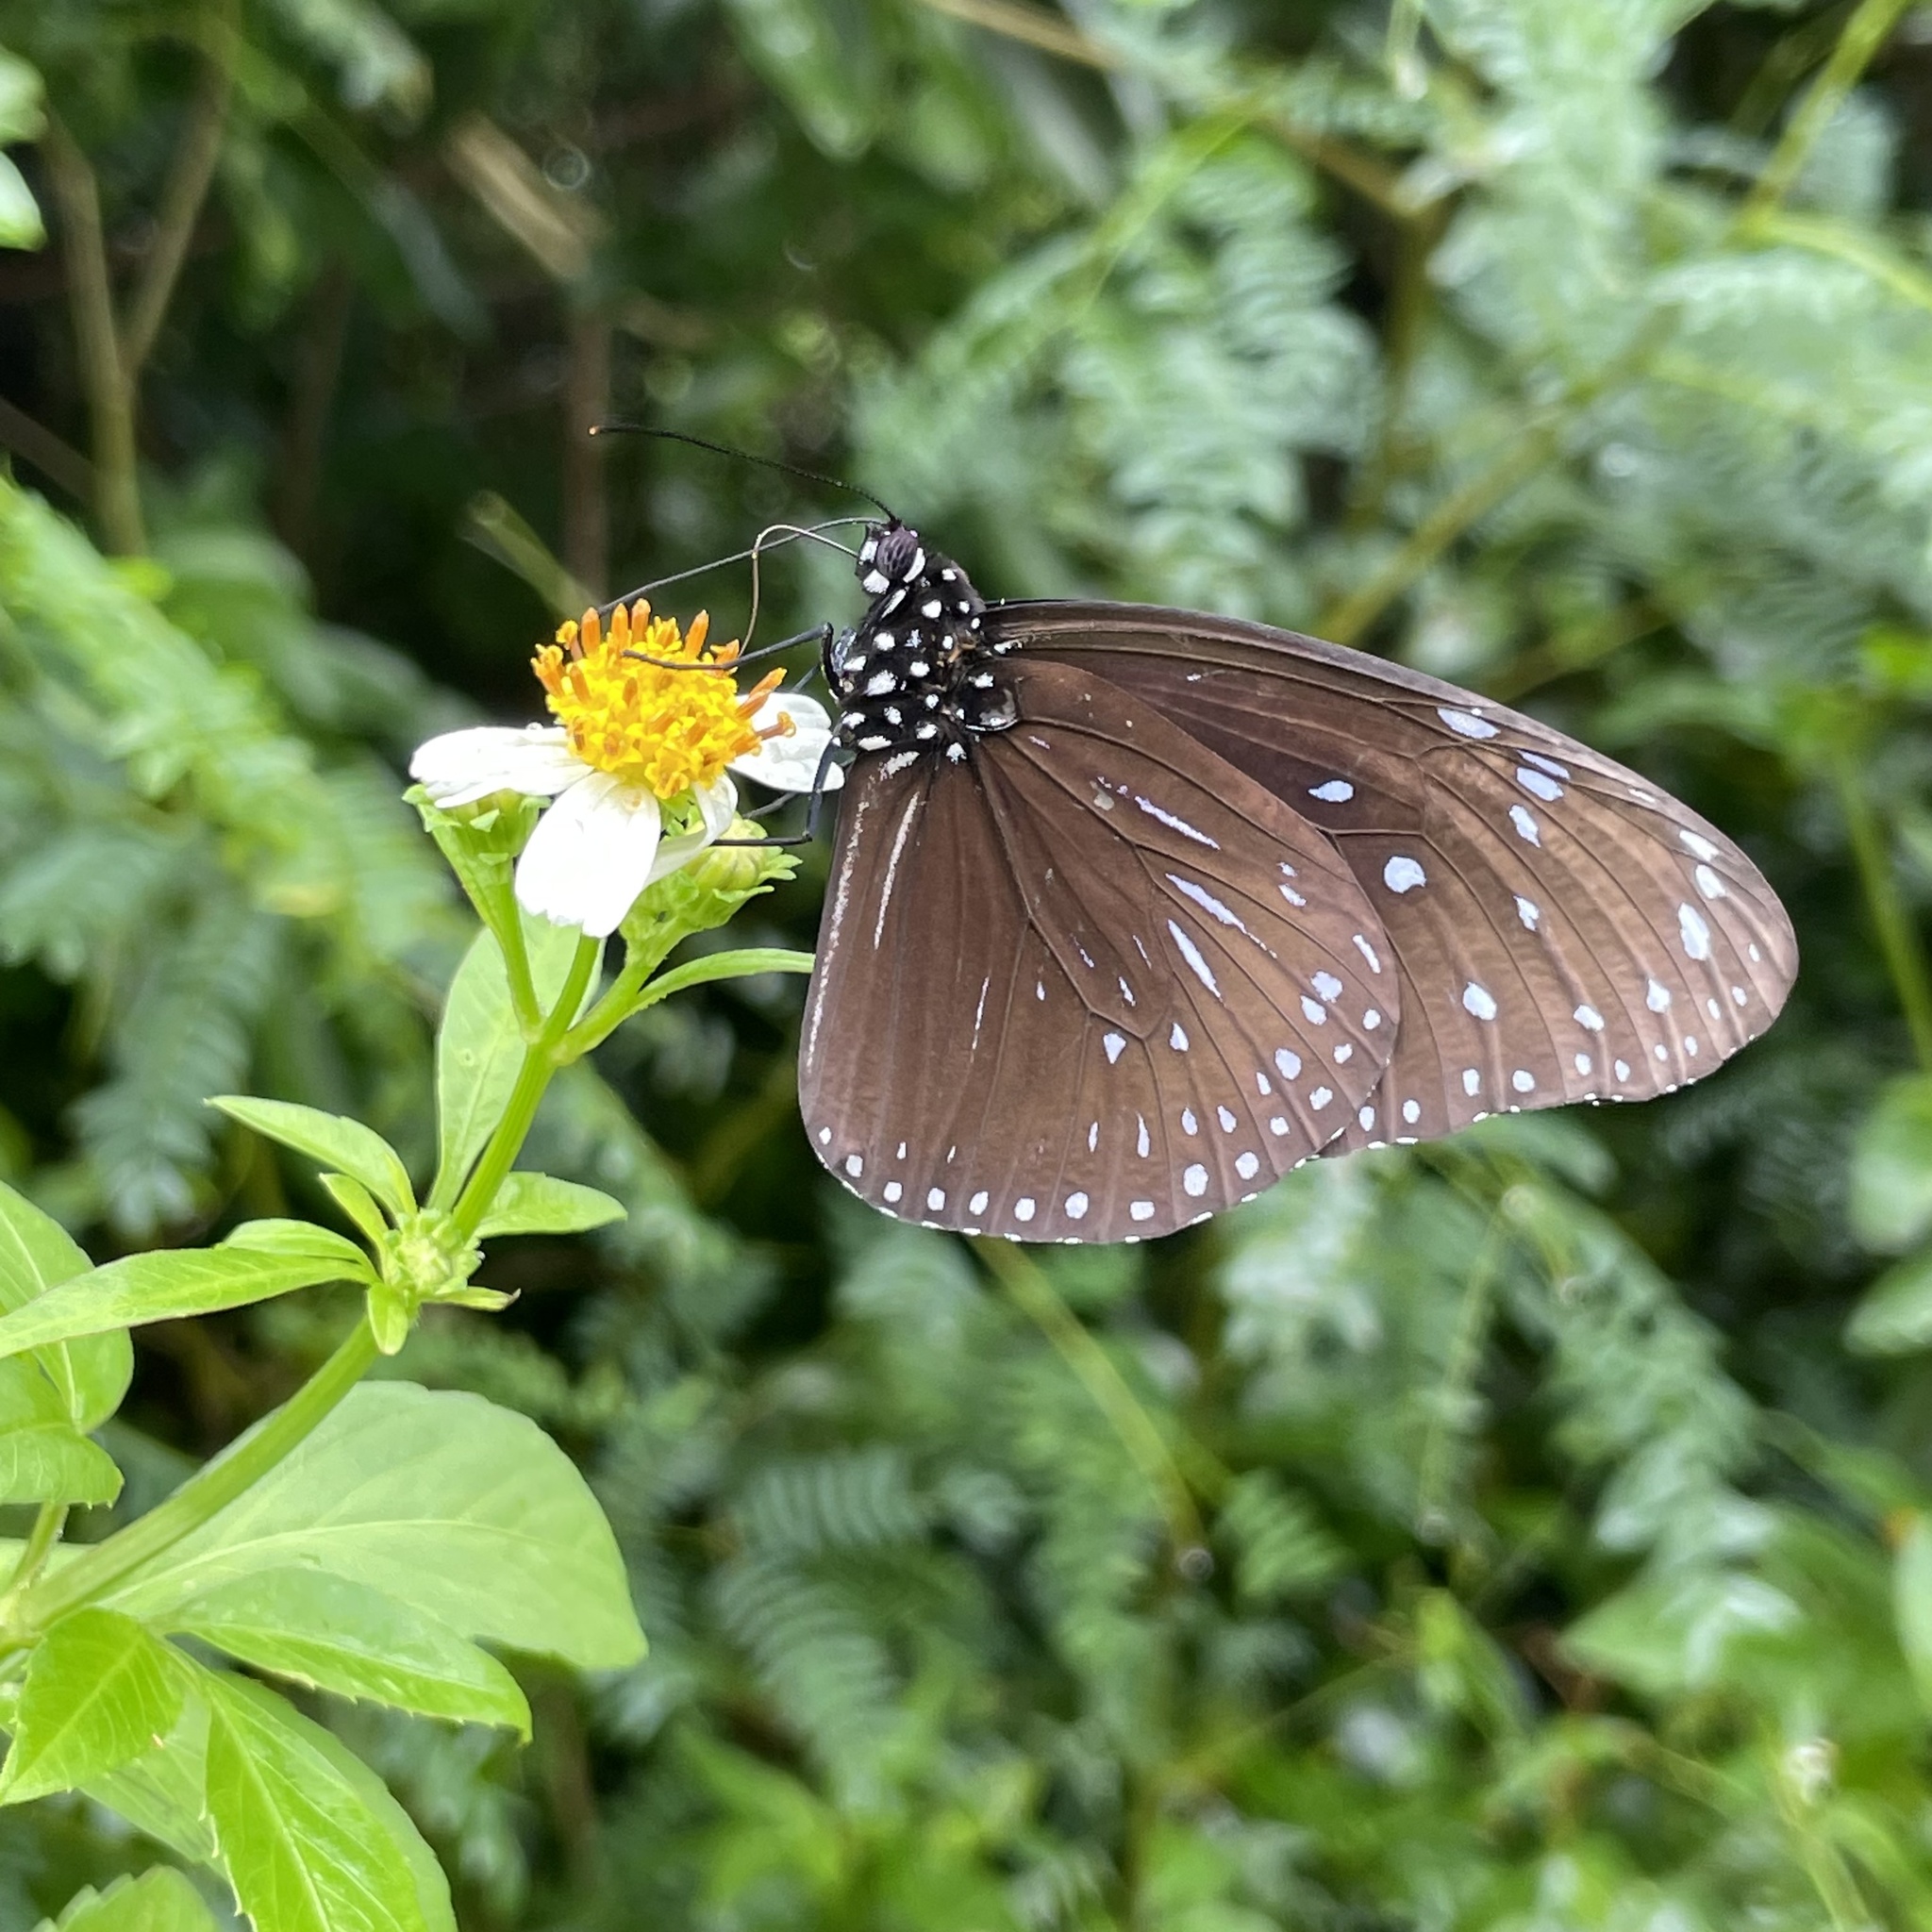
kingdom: Animalia
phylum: Arthropoda
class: Insecta
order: Lepidoptera
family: Nymphalidae
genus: Euploea
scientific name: Euploea mulciber
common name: Striped blue crow butterfly
